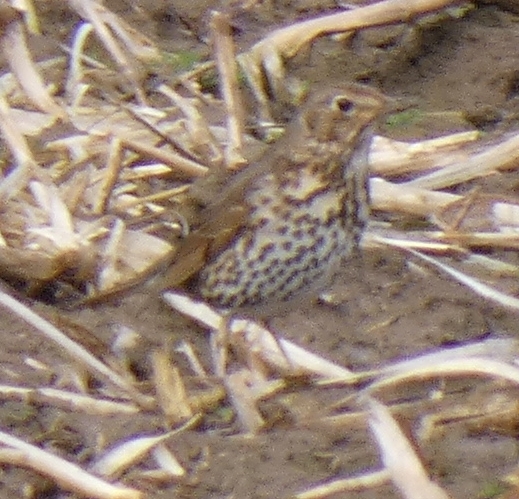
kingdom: Animalia
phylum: Chordata
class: Aves
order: Passeriformes
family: Turdidae
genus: Turdus
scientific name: Turdus philomelos
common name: Song thrush
